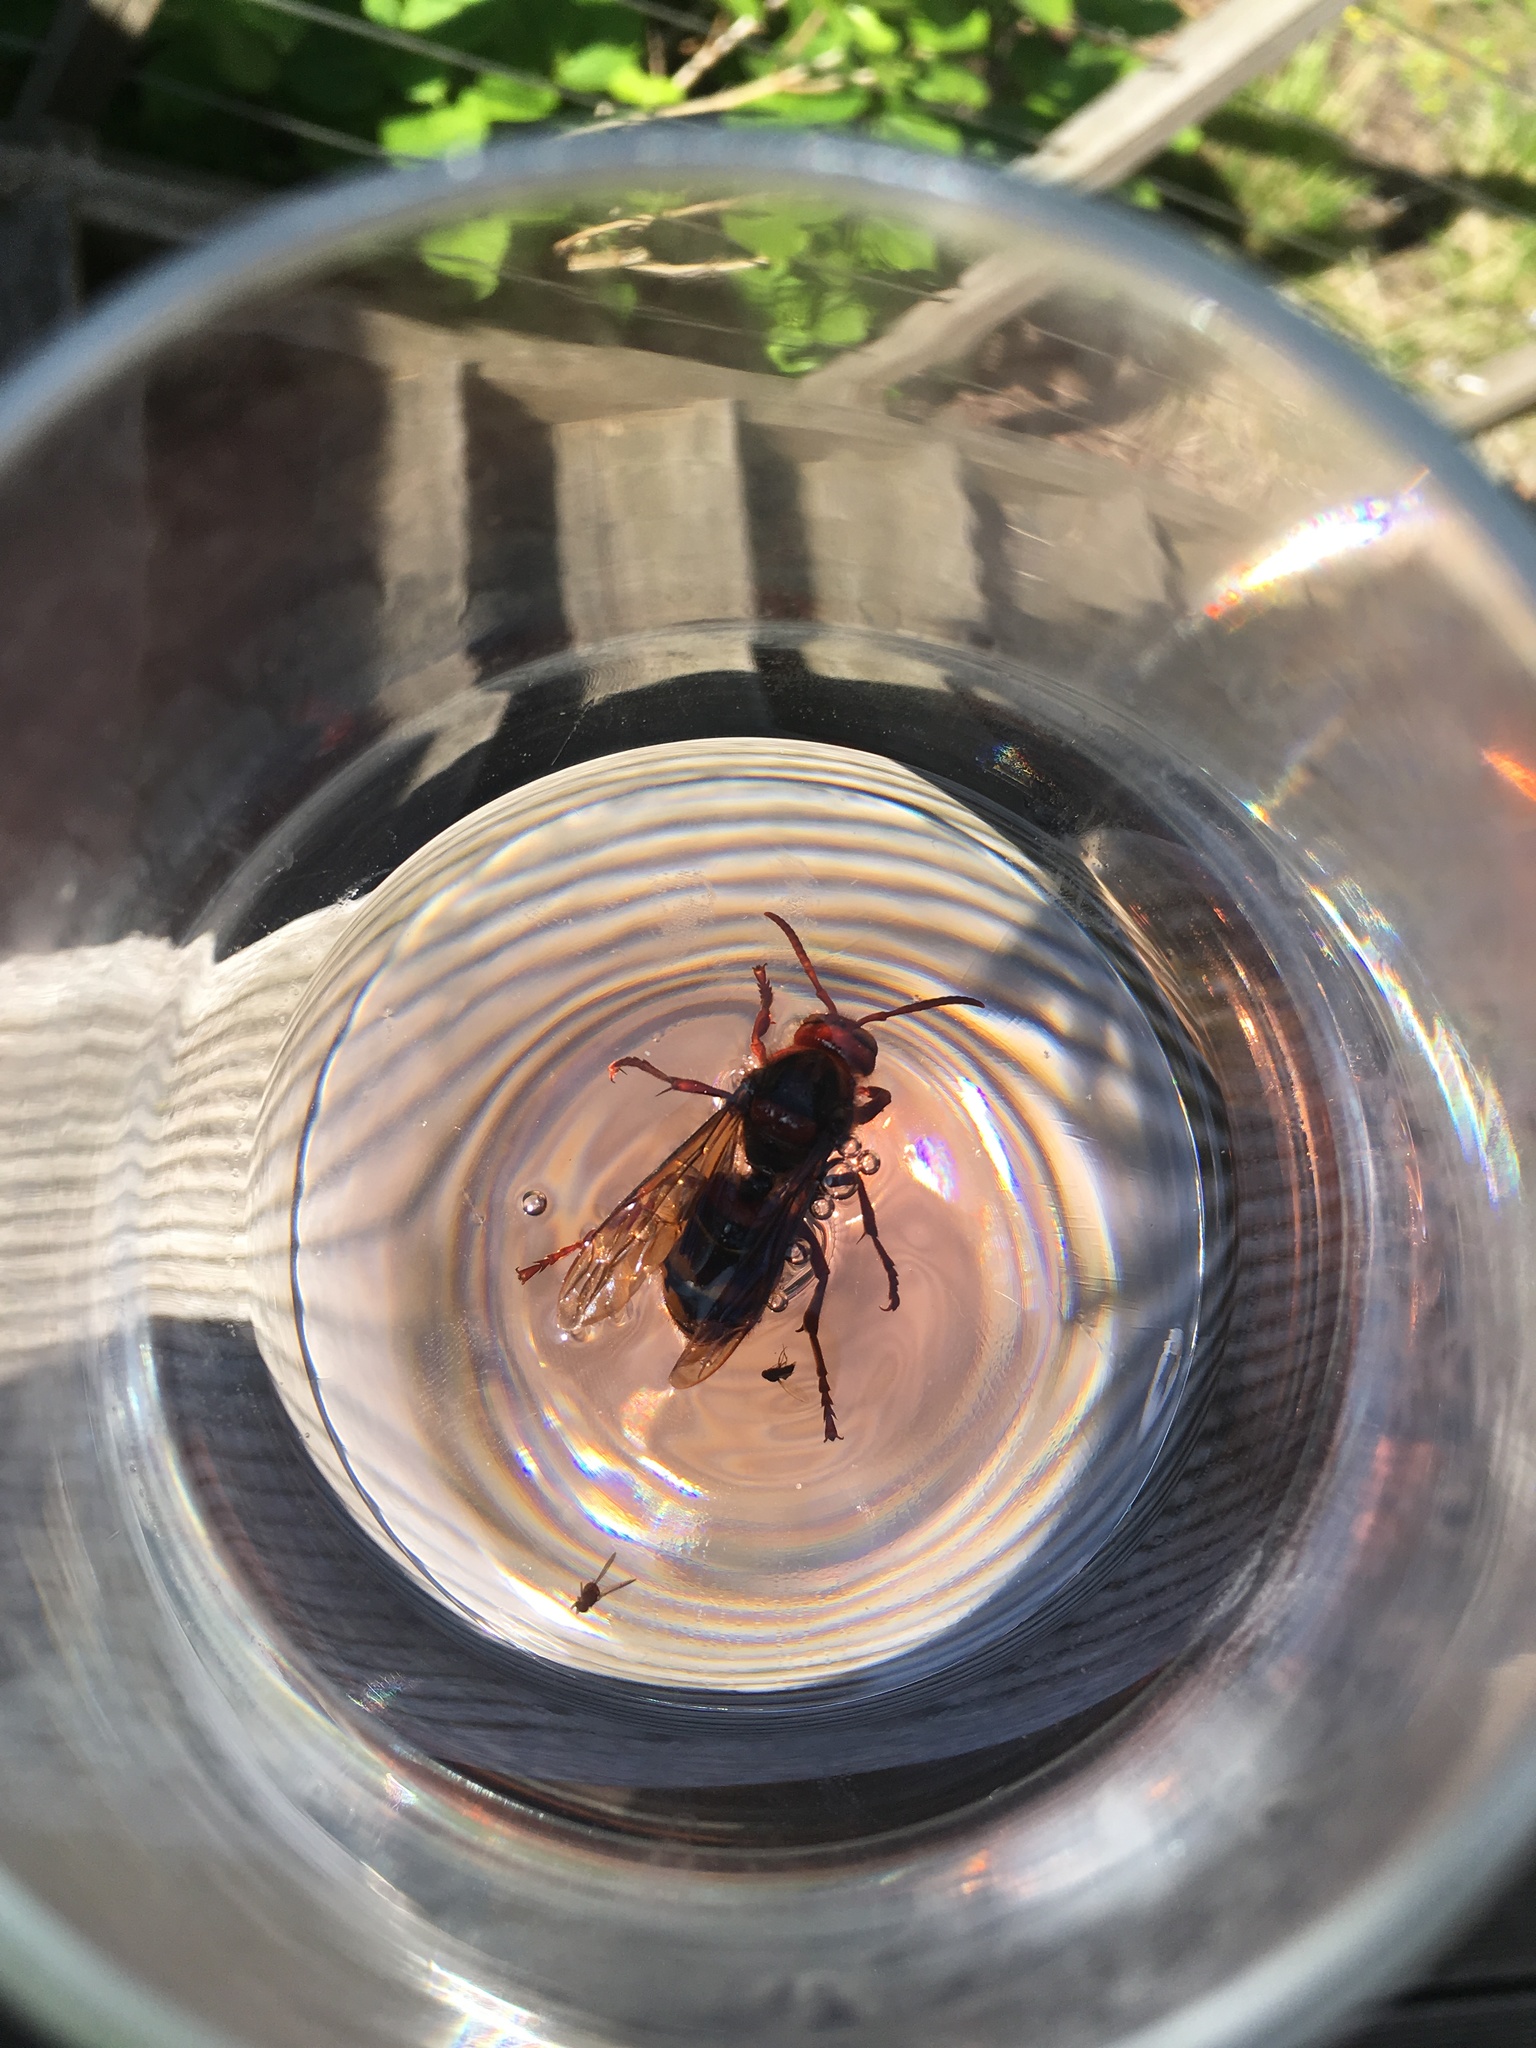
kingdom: Animalia
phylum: Arthropoda
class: Insecta
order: Hymenoptera
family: Vespidae
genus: Vespa
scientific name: Vespa crabro
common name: Hornet
